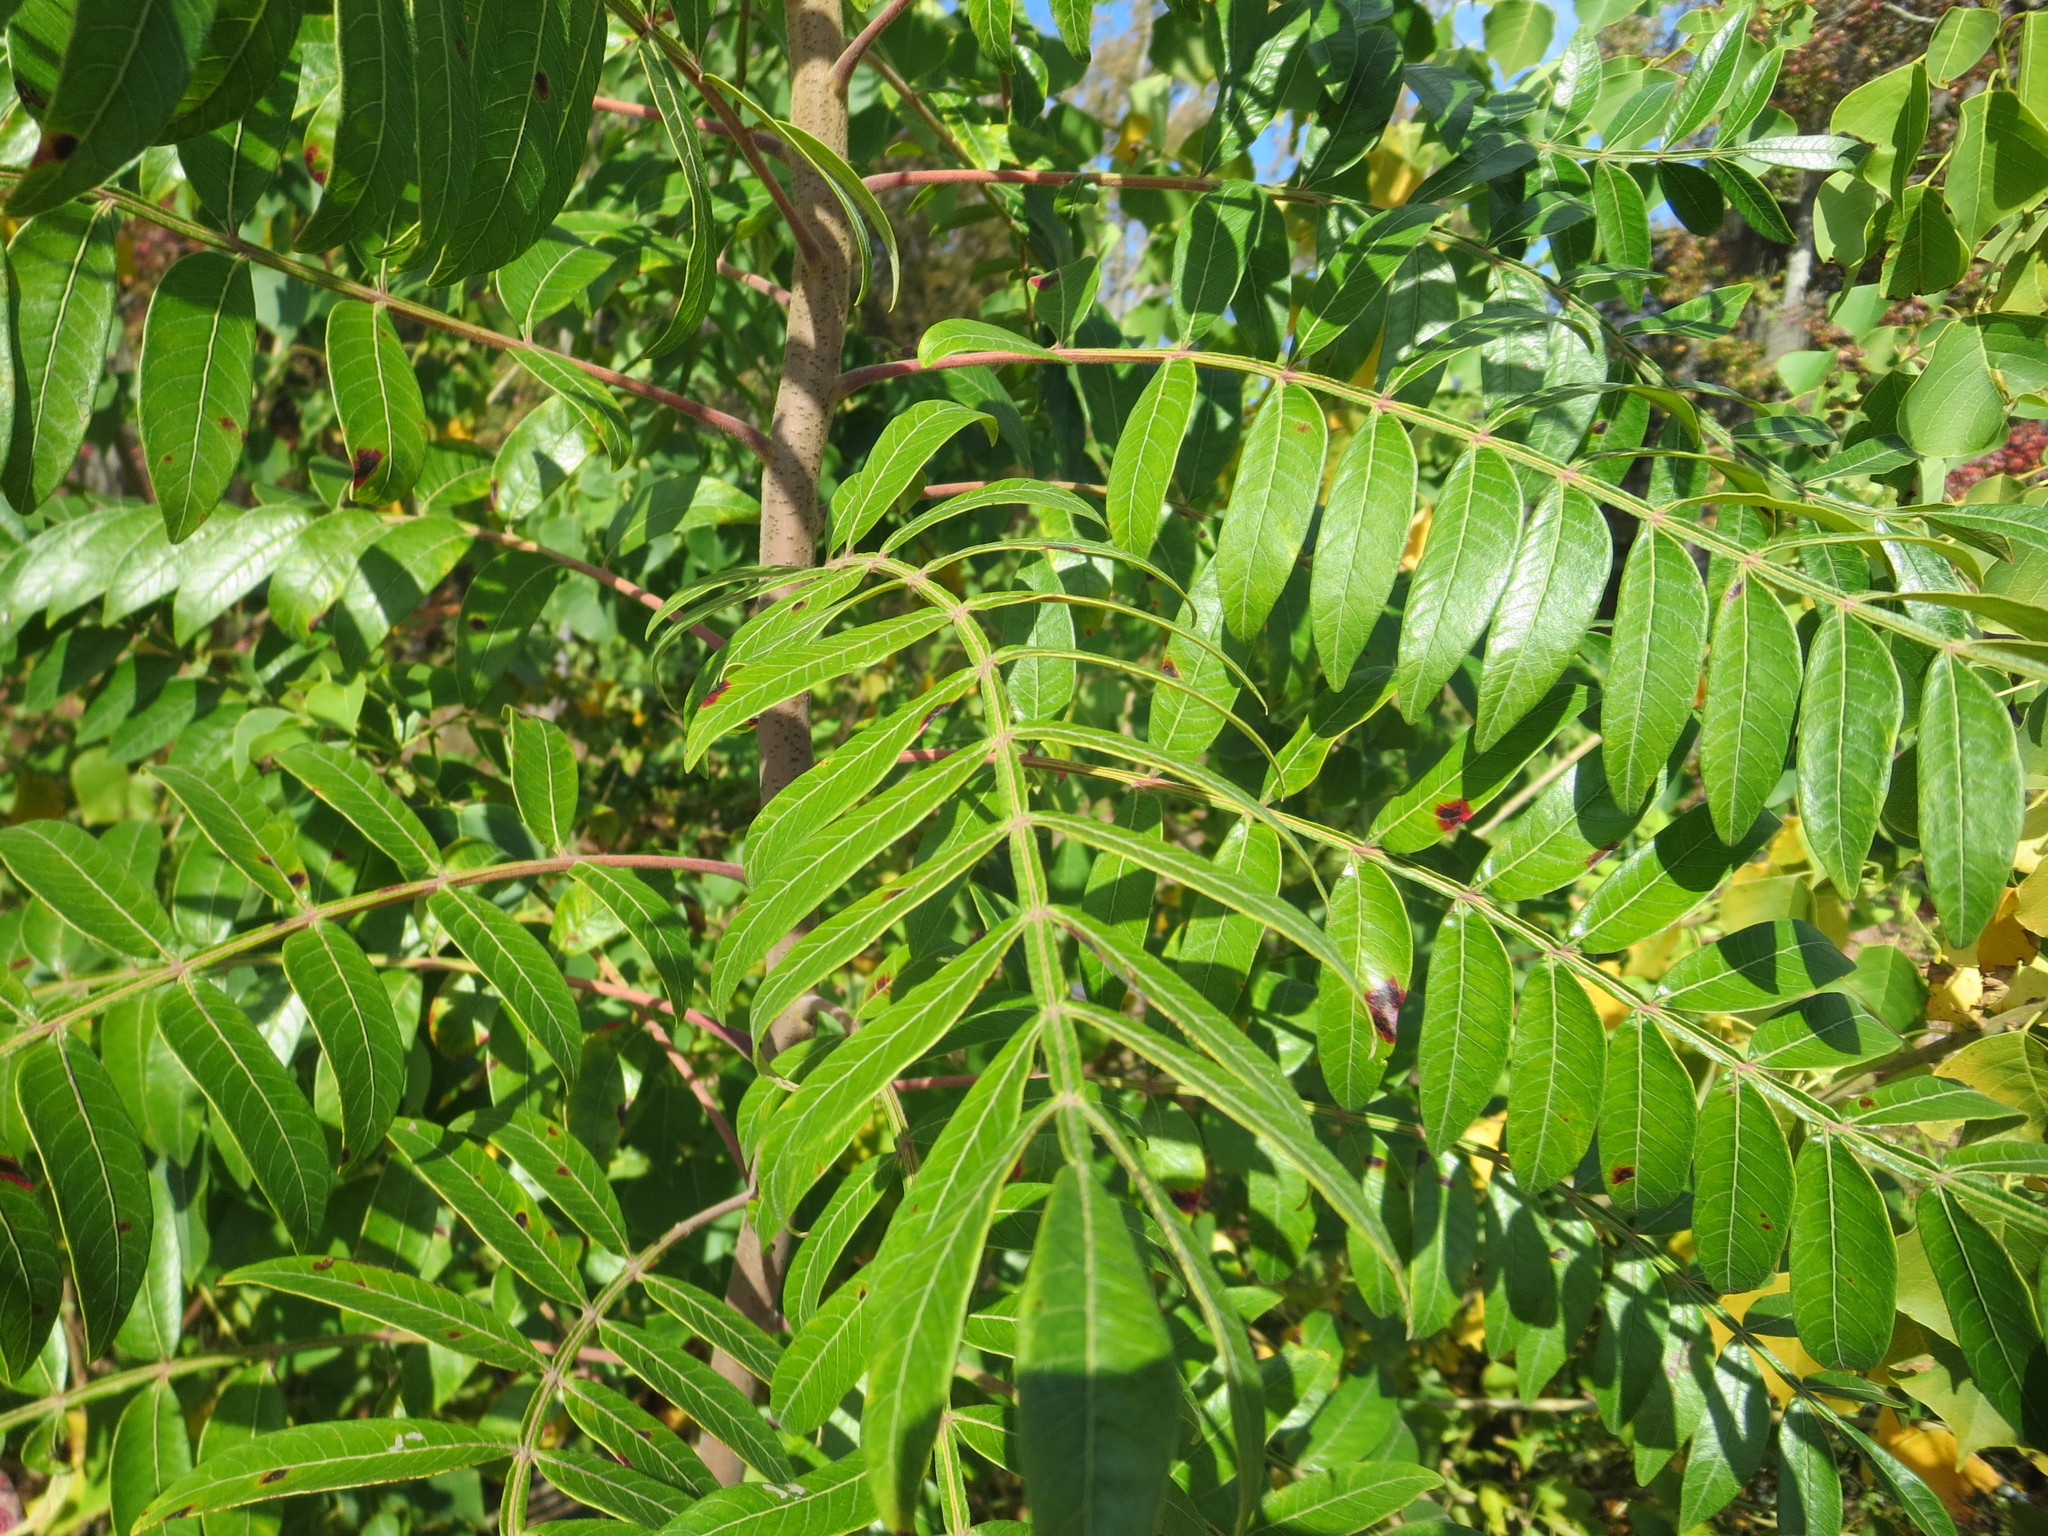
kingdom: Plantae
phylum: Tracheophyta
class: Magnoliopsida
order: Sapindales
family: Anacardiaceae
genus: Rhus
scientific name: Rhus copallina
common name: Shining sumac
